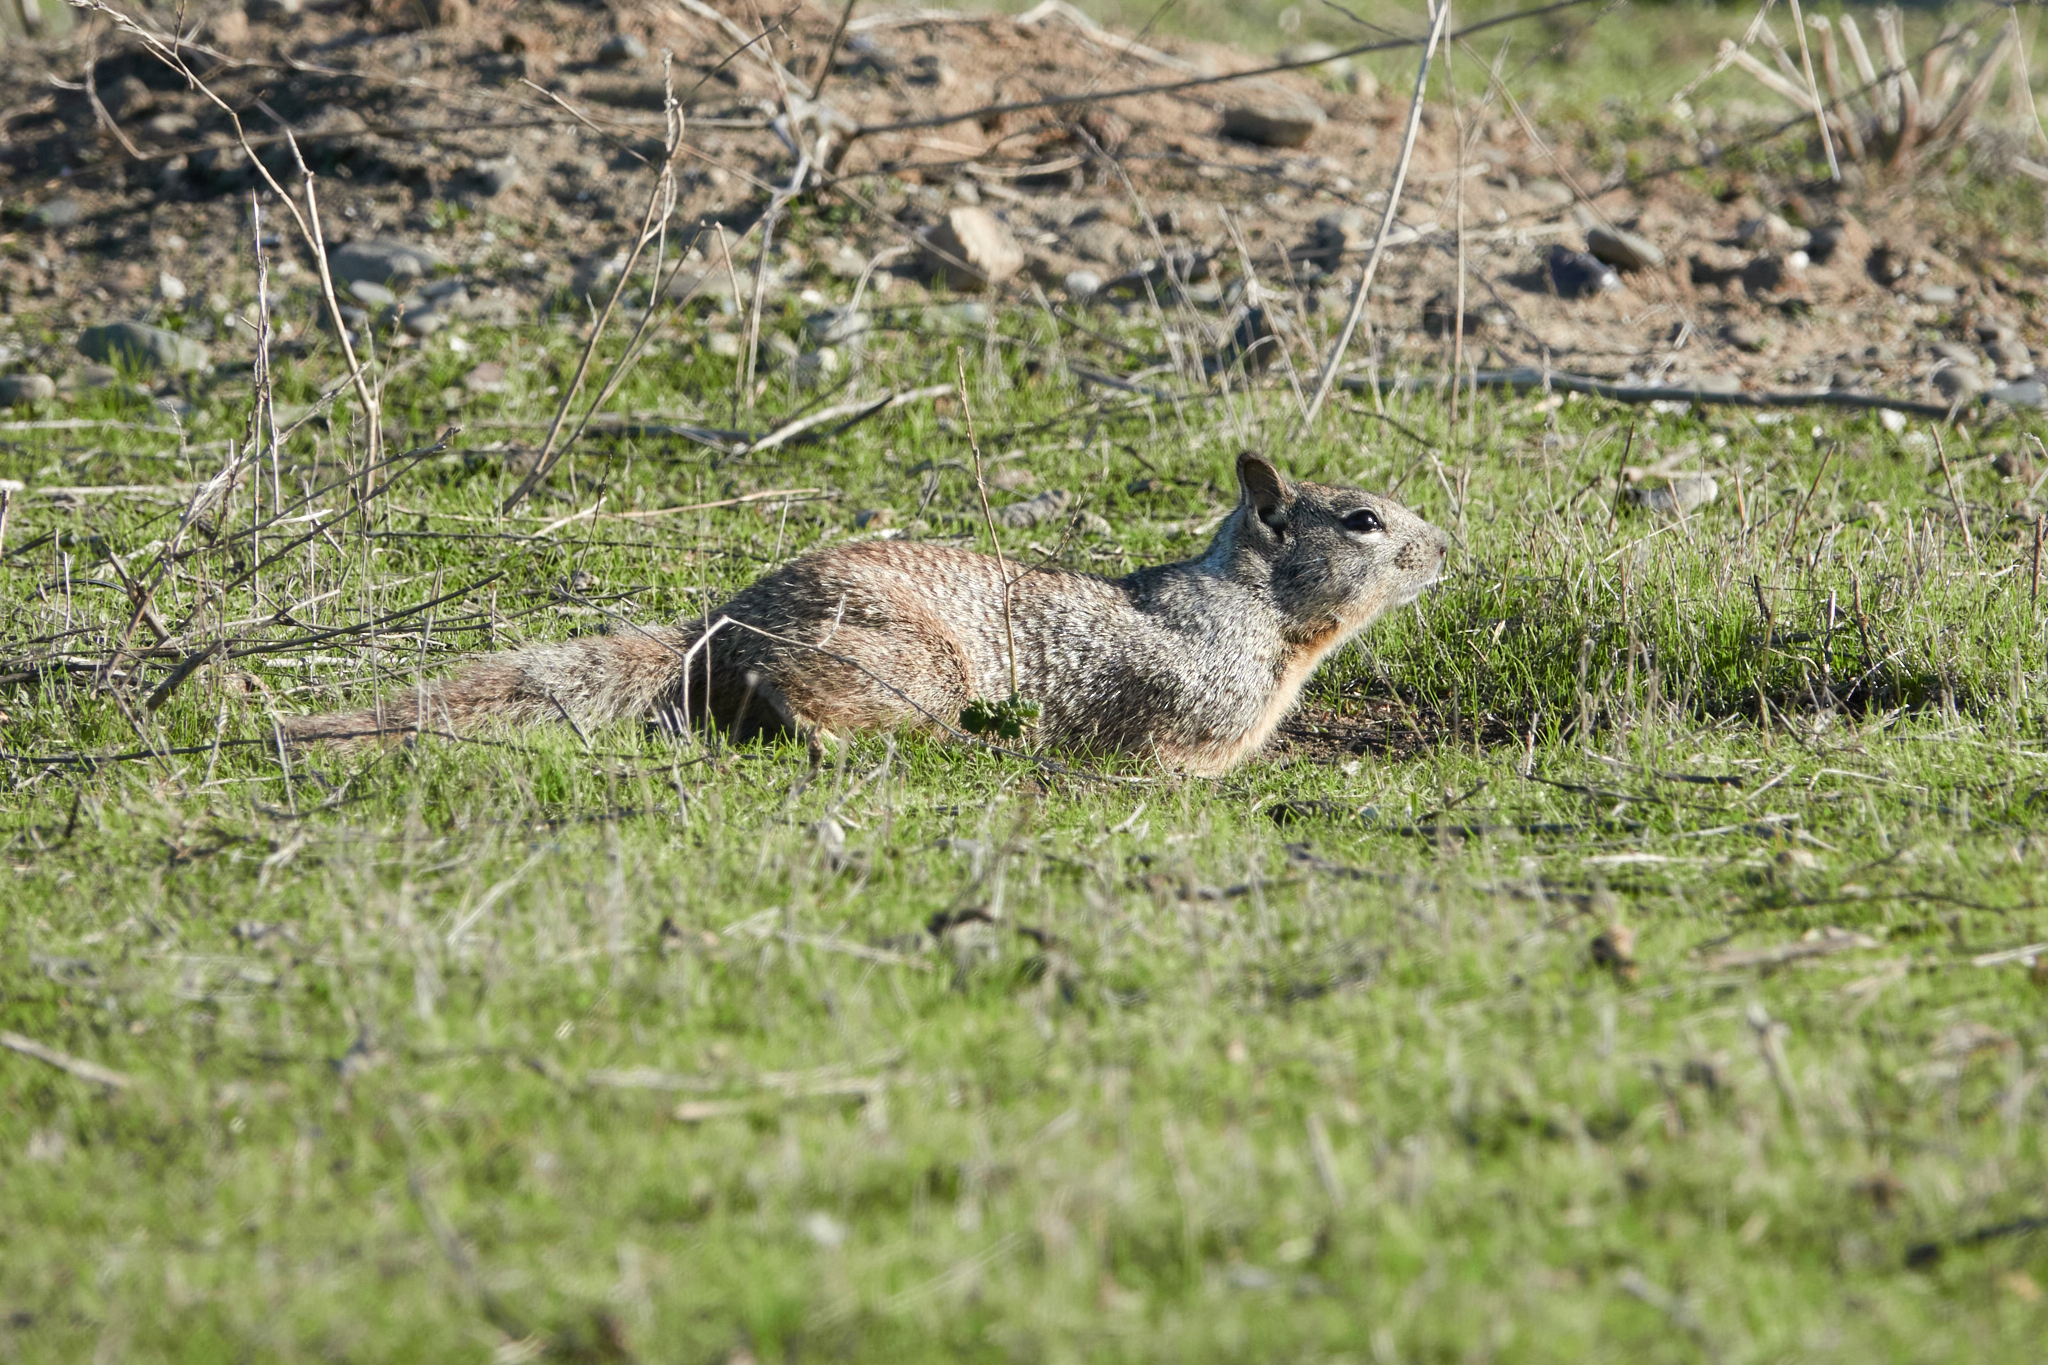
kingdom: Animalia
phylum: Chordata
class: Mammalia
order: Rodentia
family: Sciuridae
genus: Otospermophilus
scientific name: Otospermophilus beecheyi
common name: California ground squirrel
